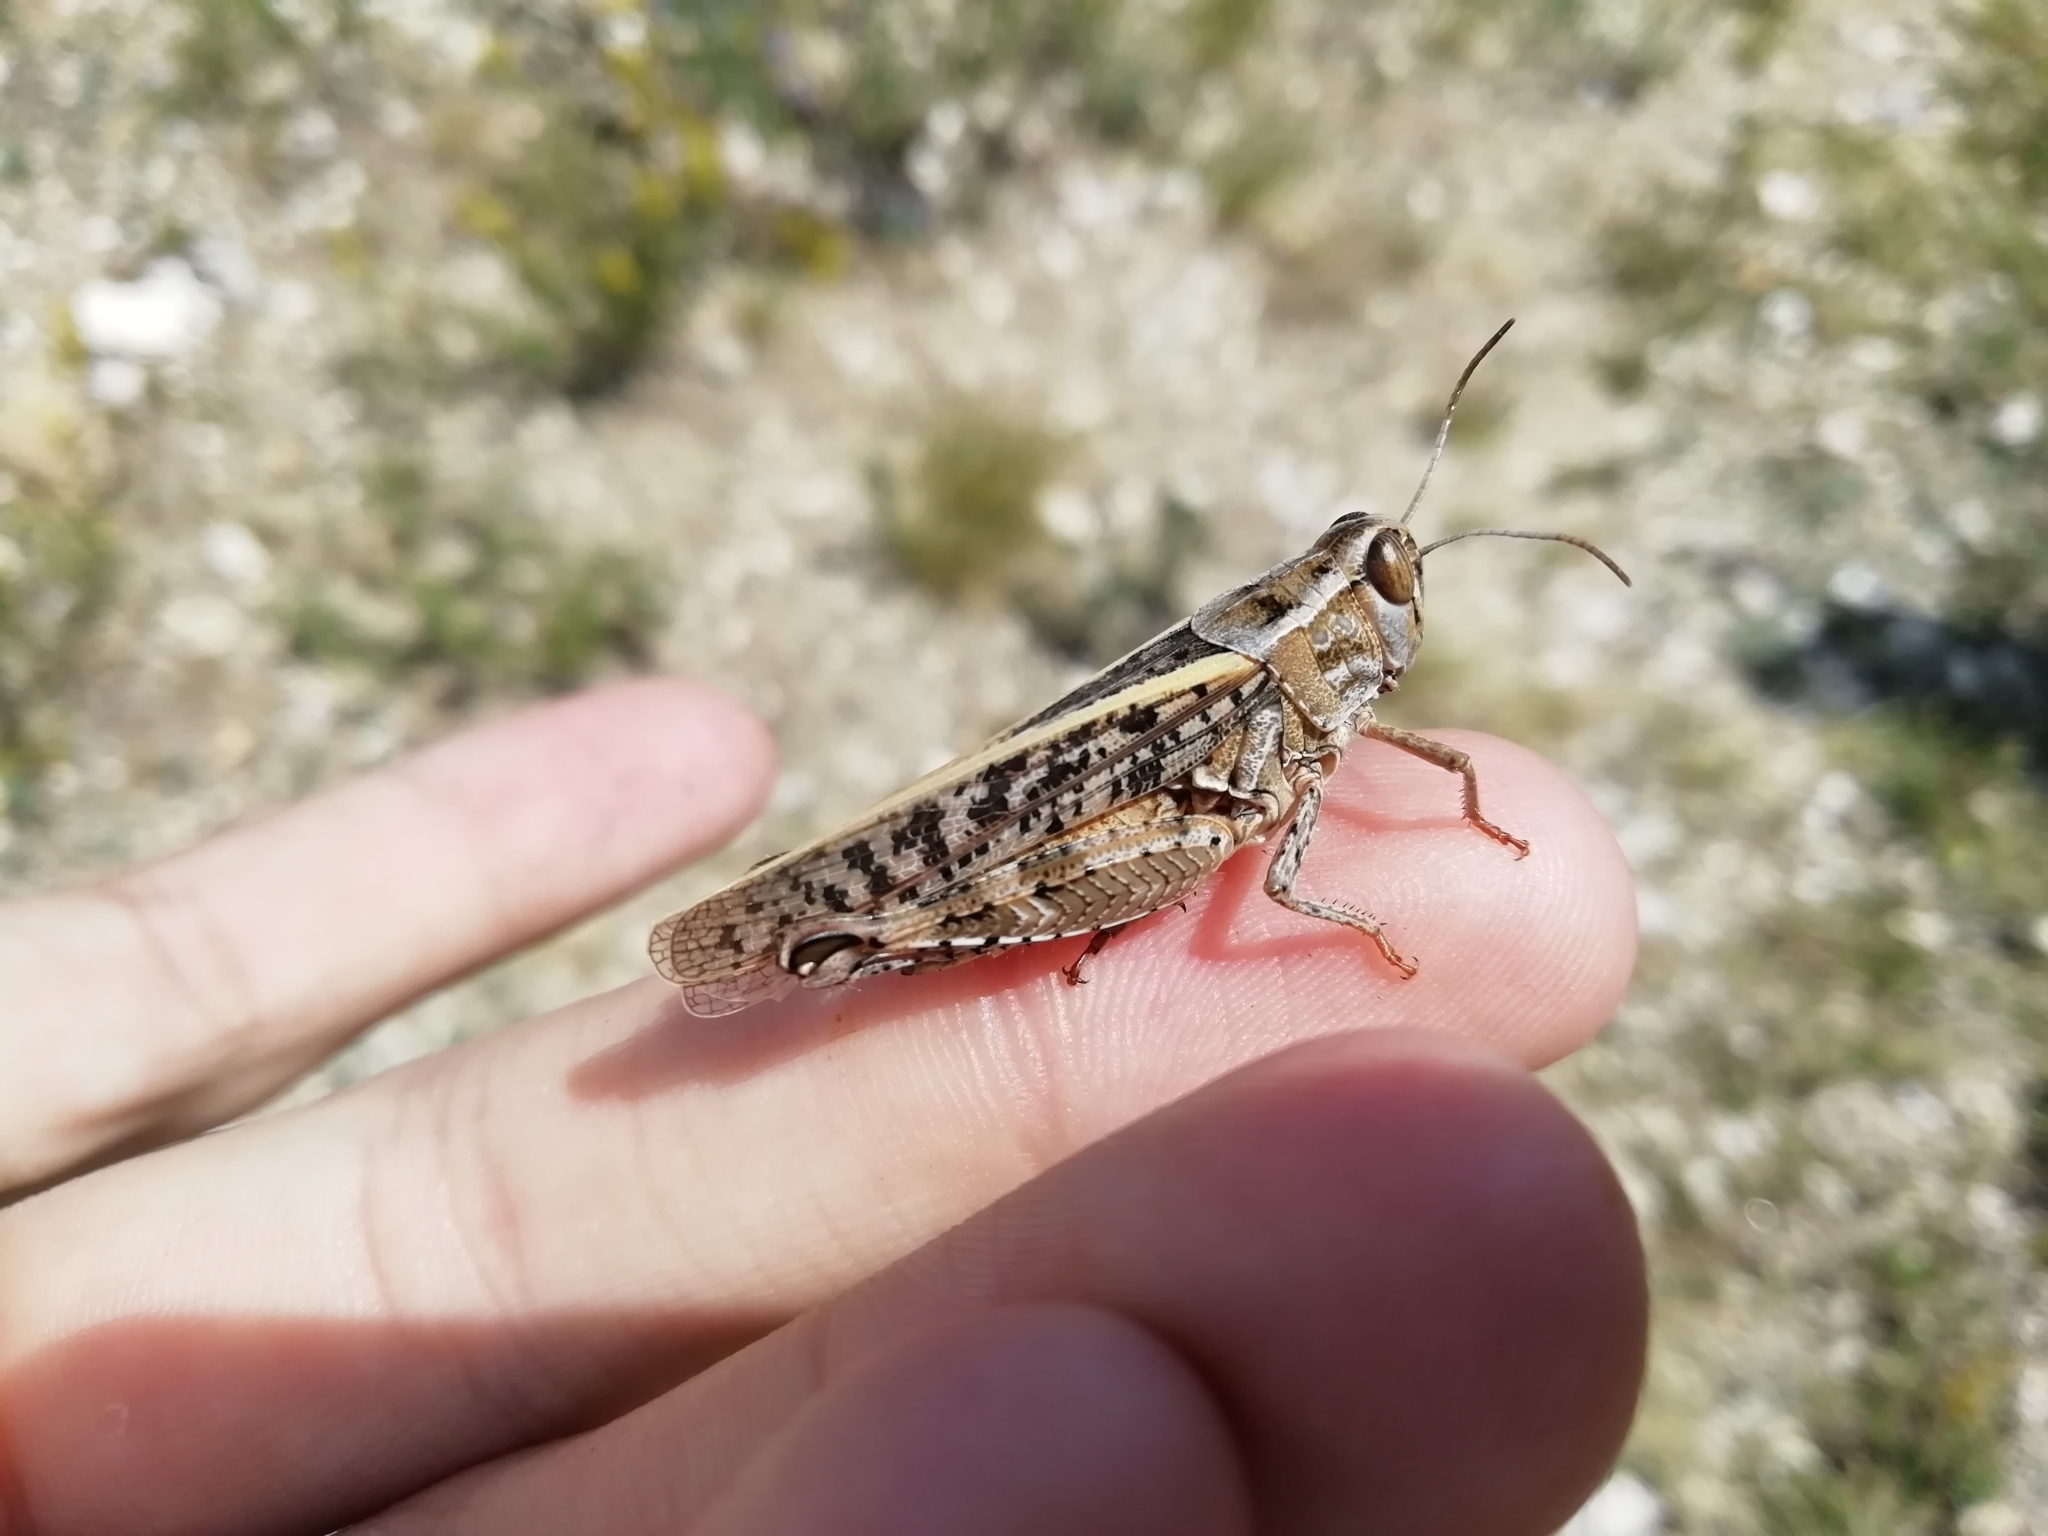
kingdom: Animalia
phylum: Arthropoda
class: Insecta
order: Orthoptera
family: Acrididae
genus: Calliptamus
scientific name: Calliptamus italicus
